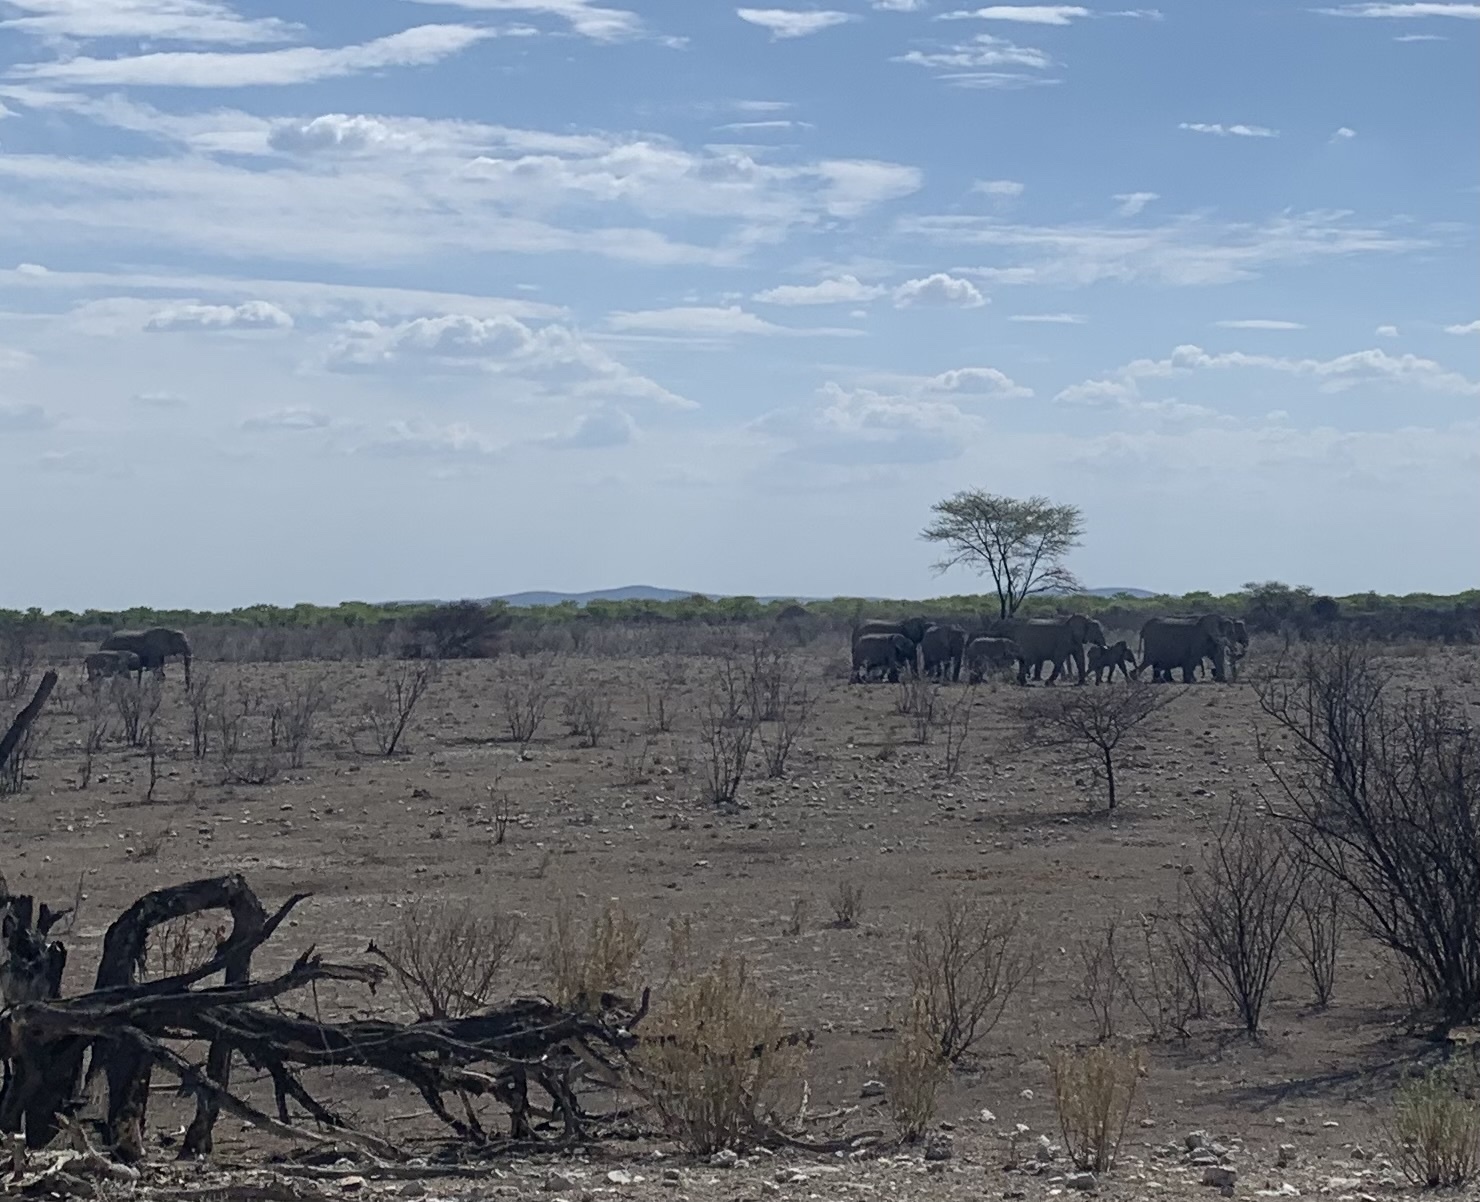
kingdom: Animalia
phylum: Chordata
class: Mammalia
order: Proboscidea
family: Elephantidae
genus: Loxodonta
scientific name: Loxodonta africana
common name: African elephant
